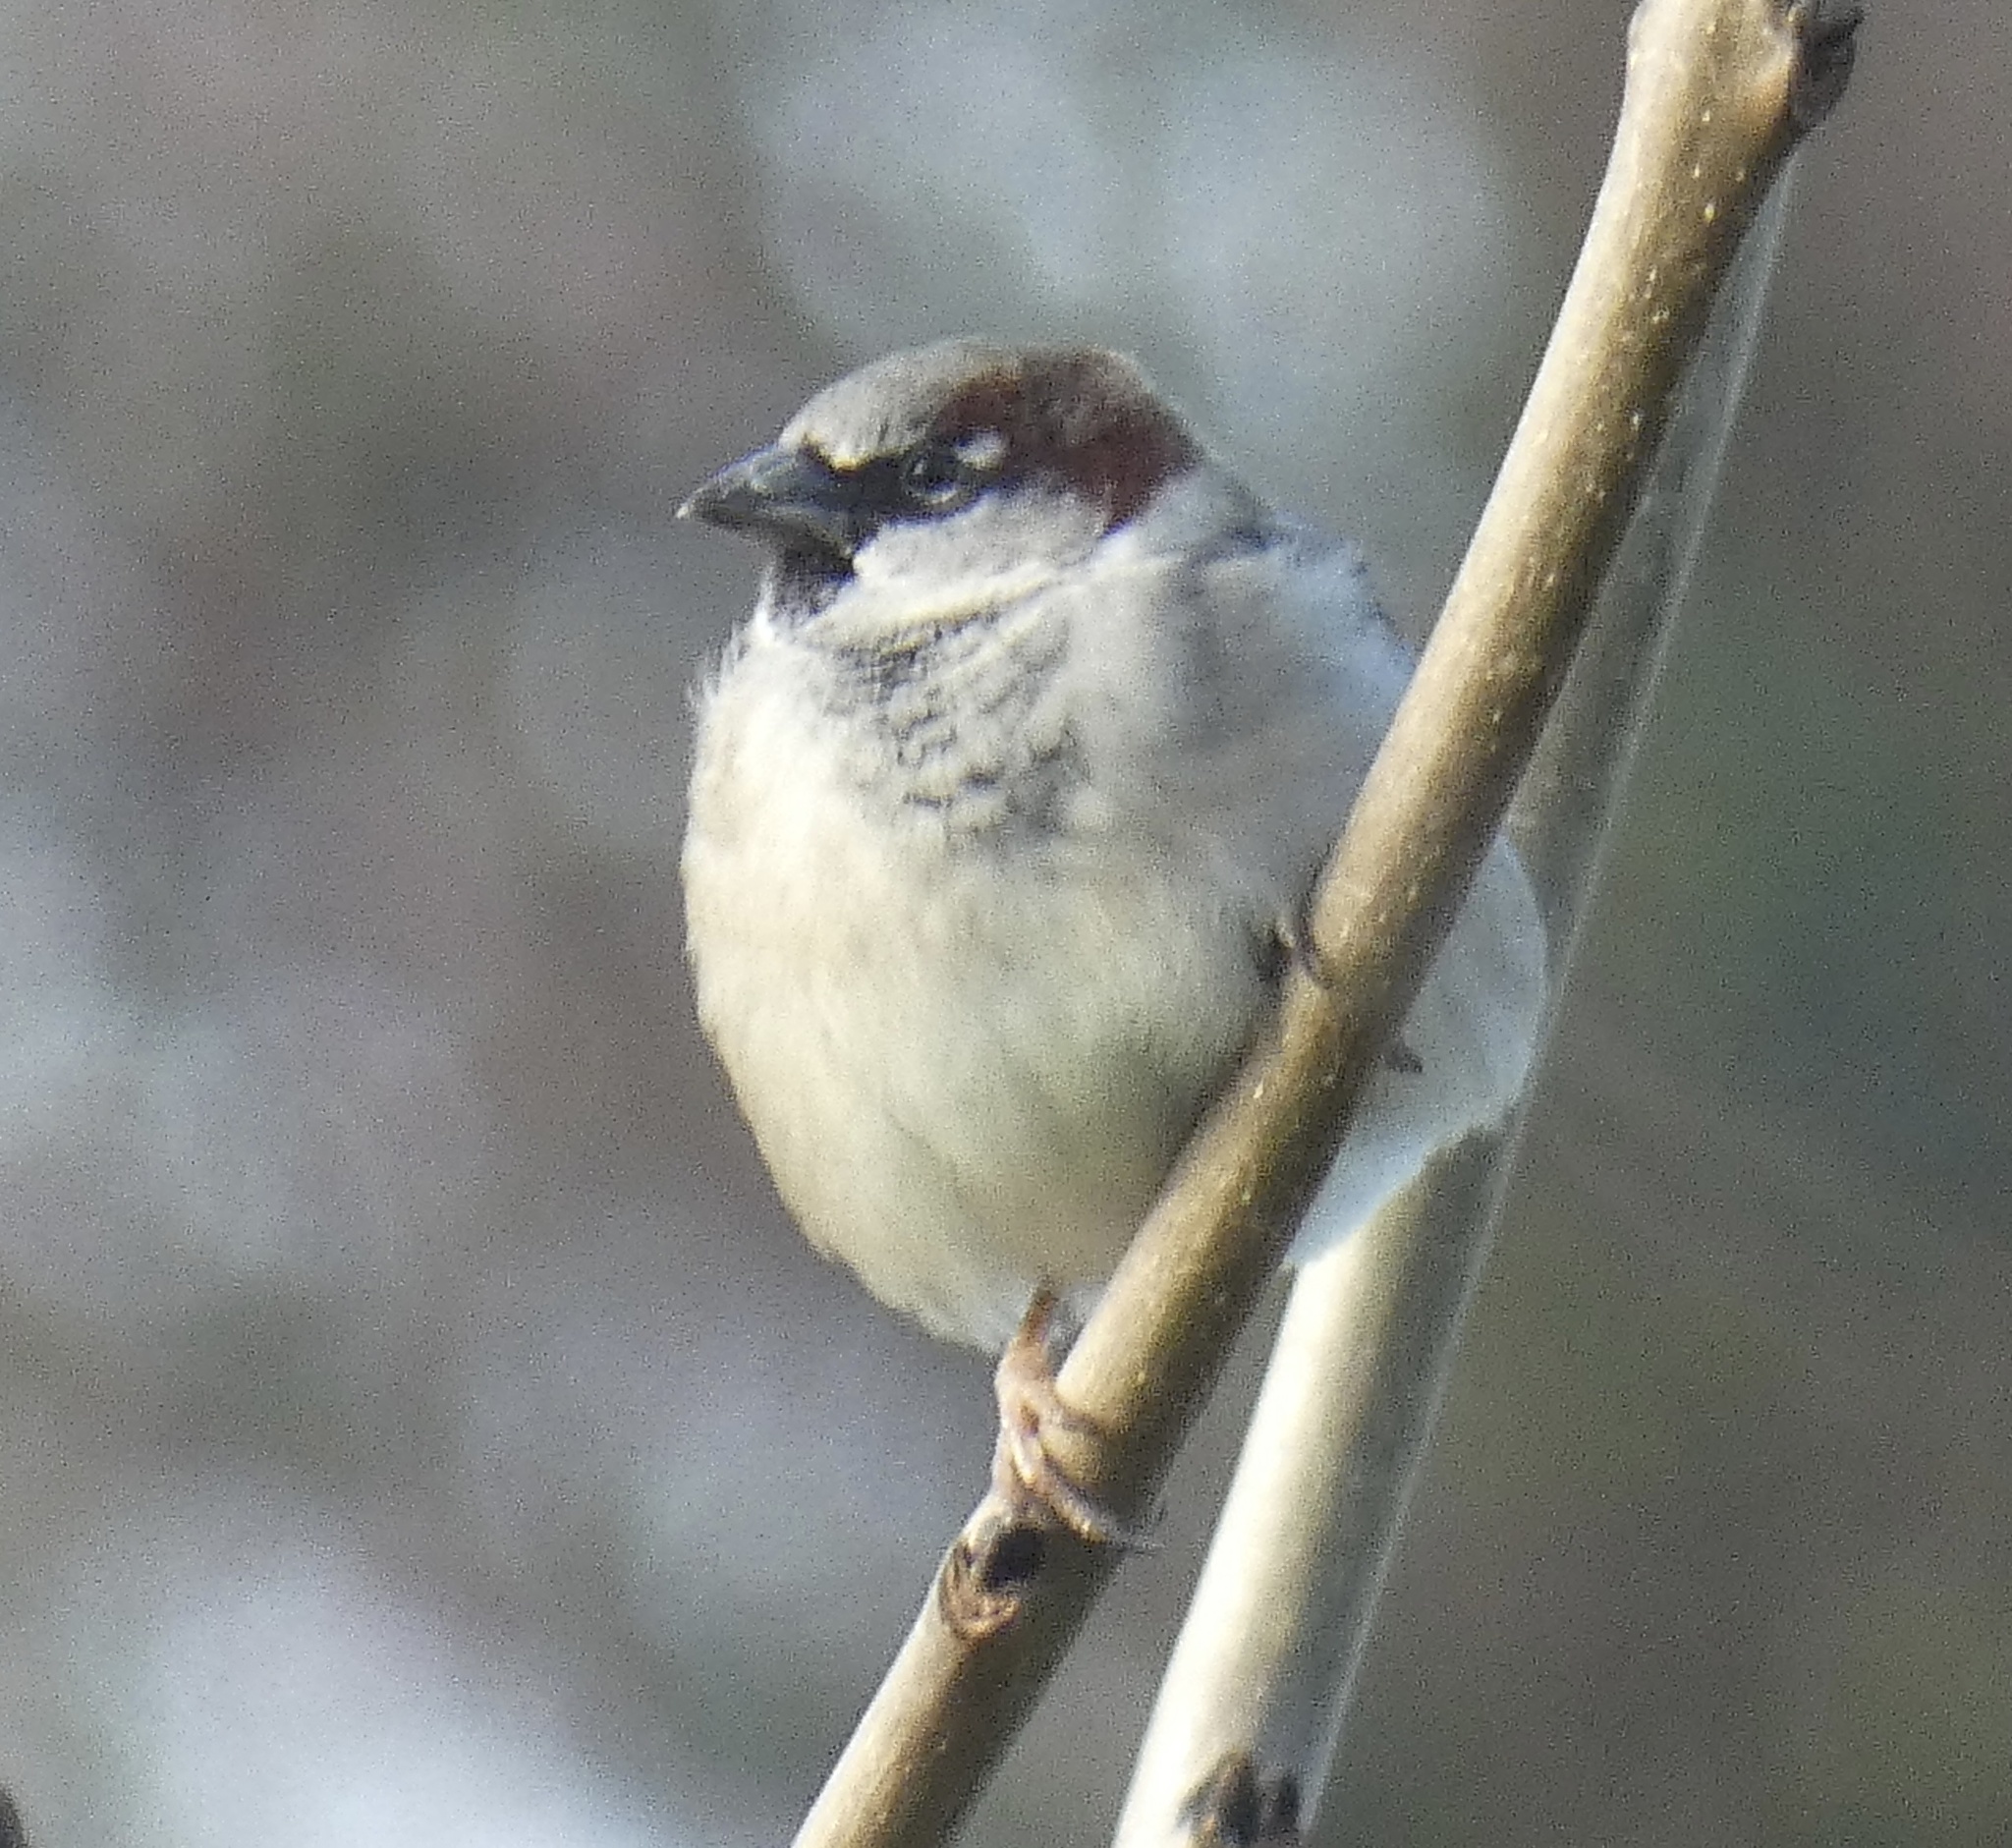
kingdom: Animalia
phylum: Chordata
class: Aves
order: Passeriformes
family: Passeridae
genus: Passer
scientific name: Passer domesticus
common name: House sparrow
